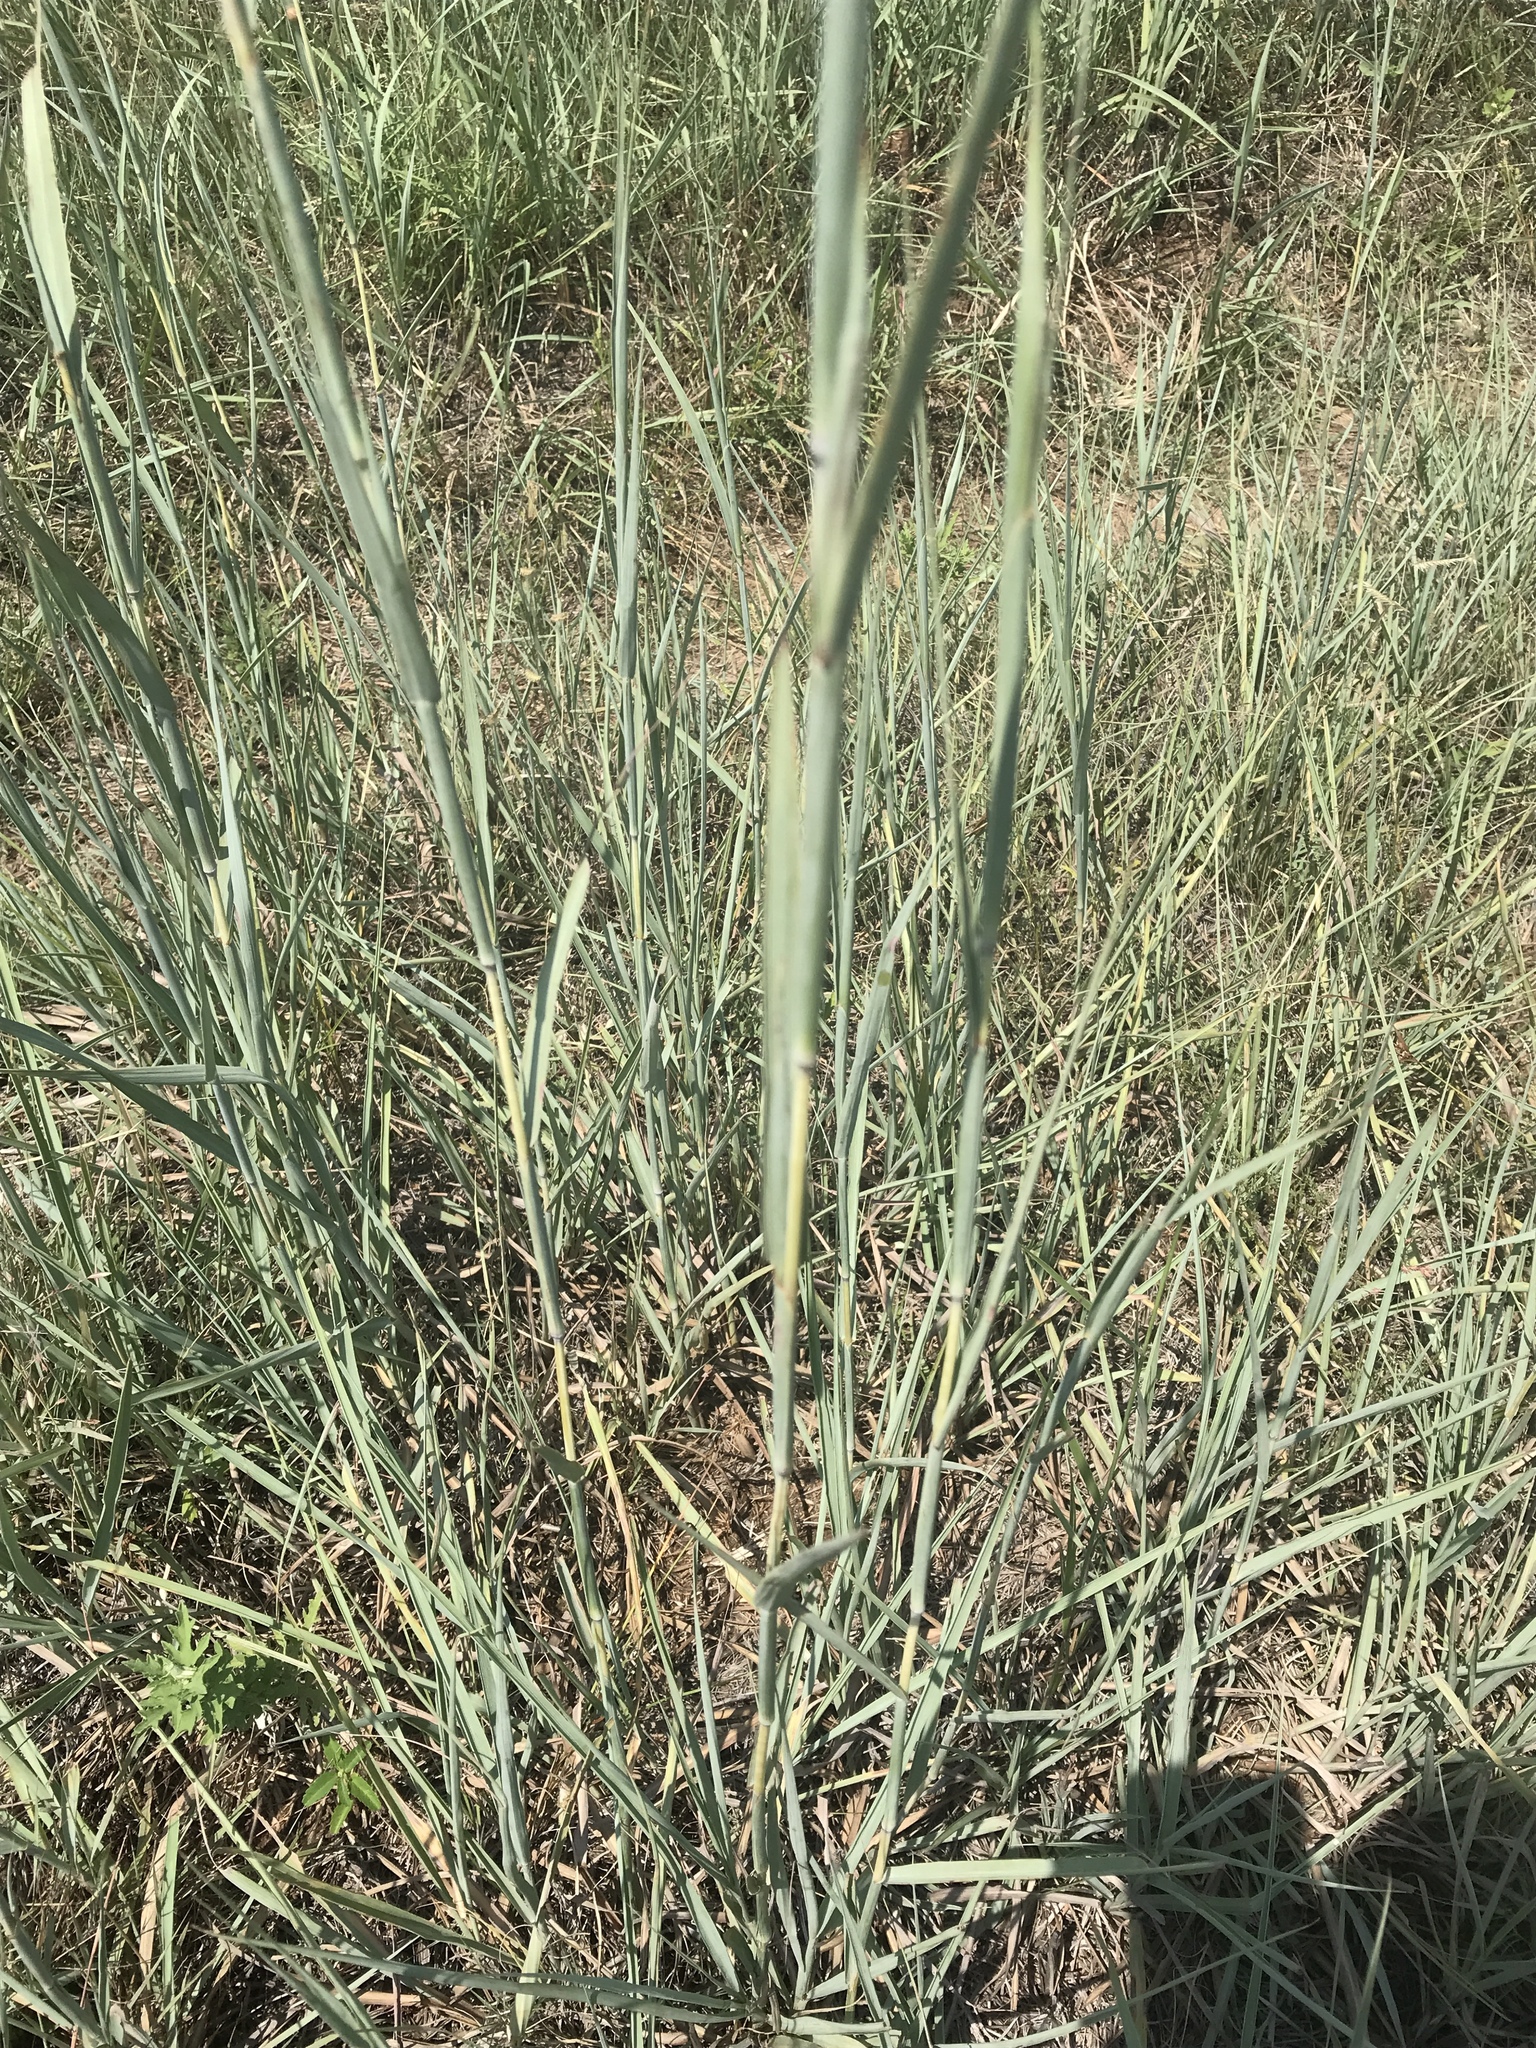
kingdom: Plantae
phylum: Tracheophyta
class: Liliopsida
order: Poales
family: Poaceae
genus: Andropogon
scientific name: Andropogon hallii
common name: Sand bluestem
